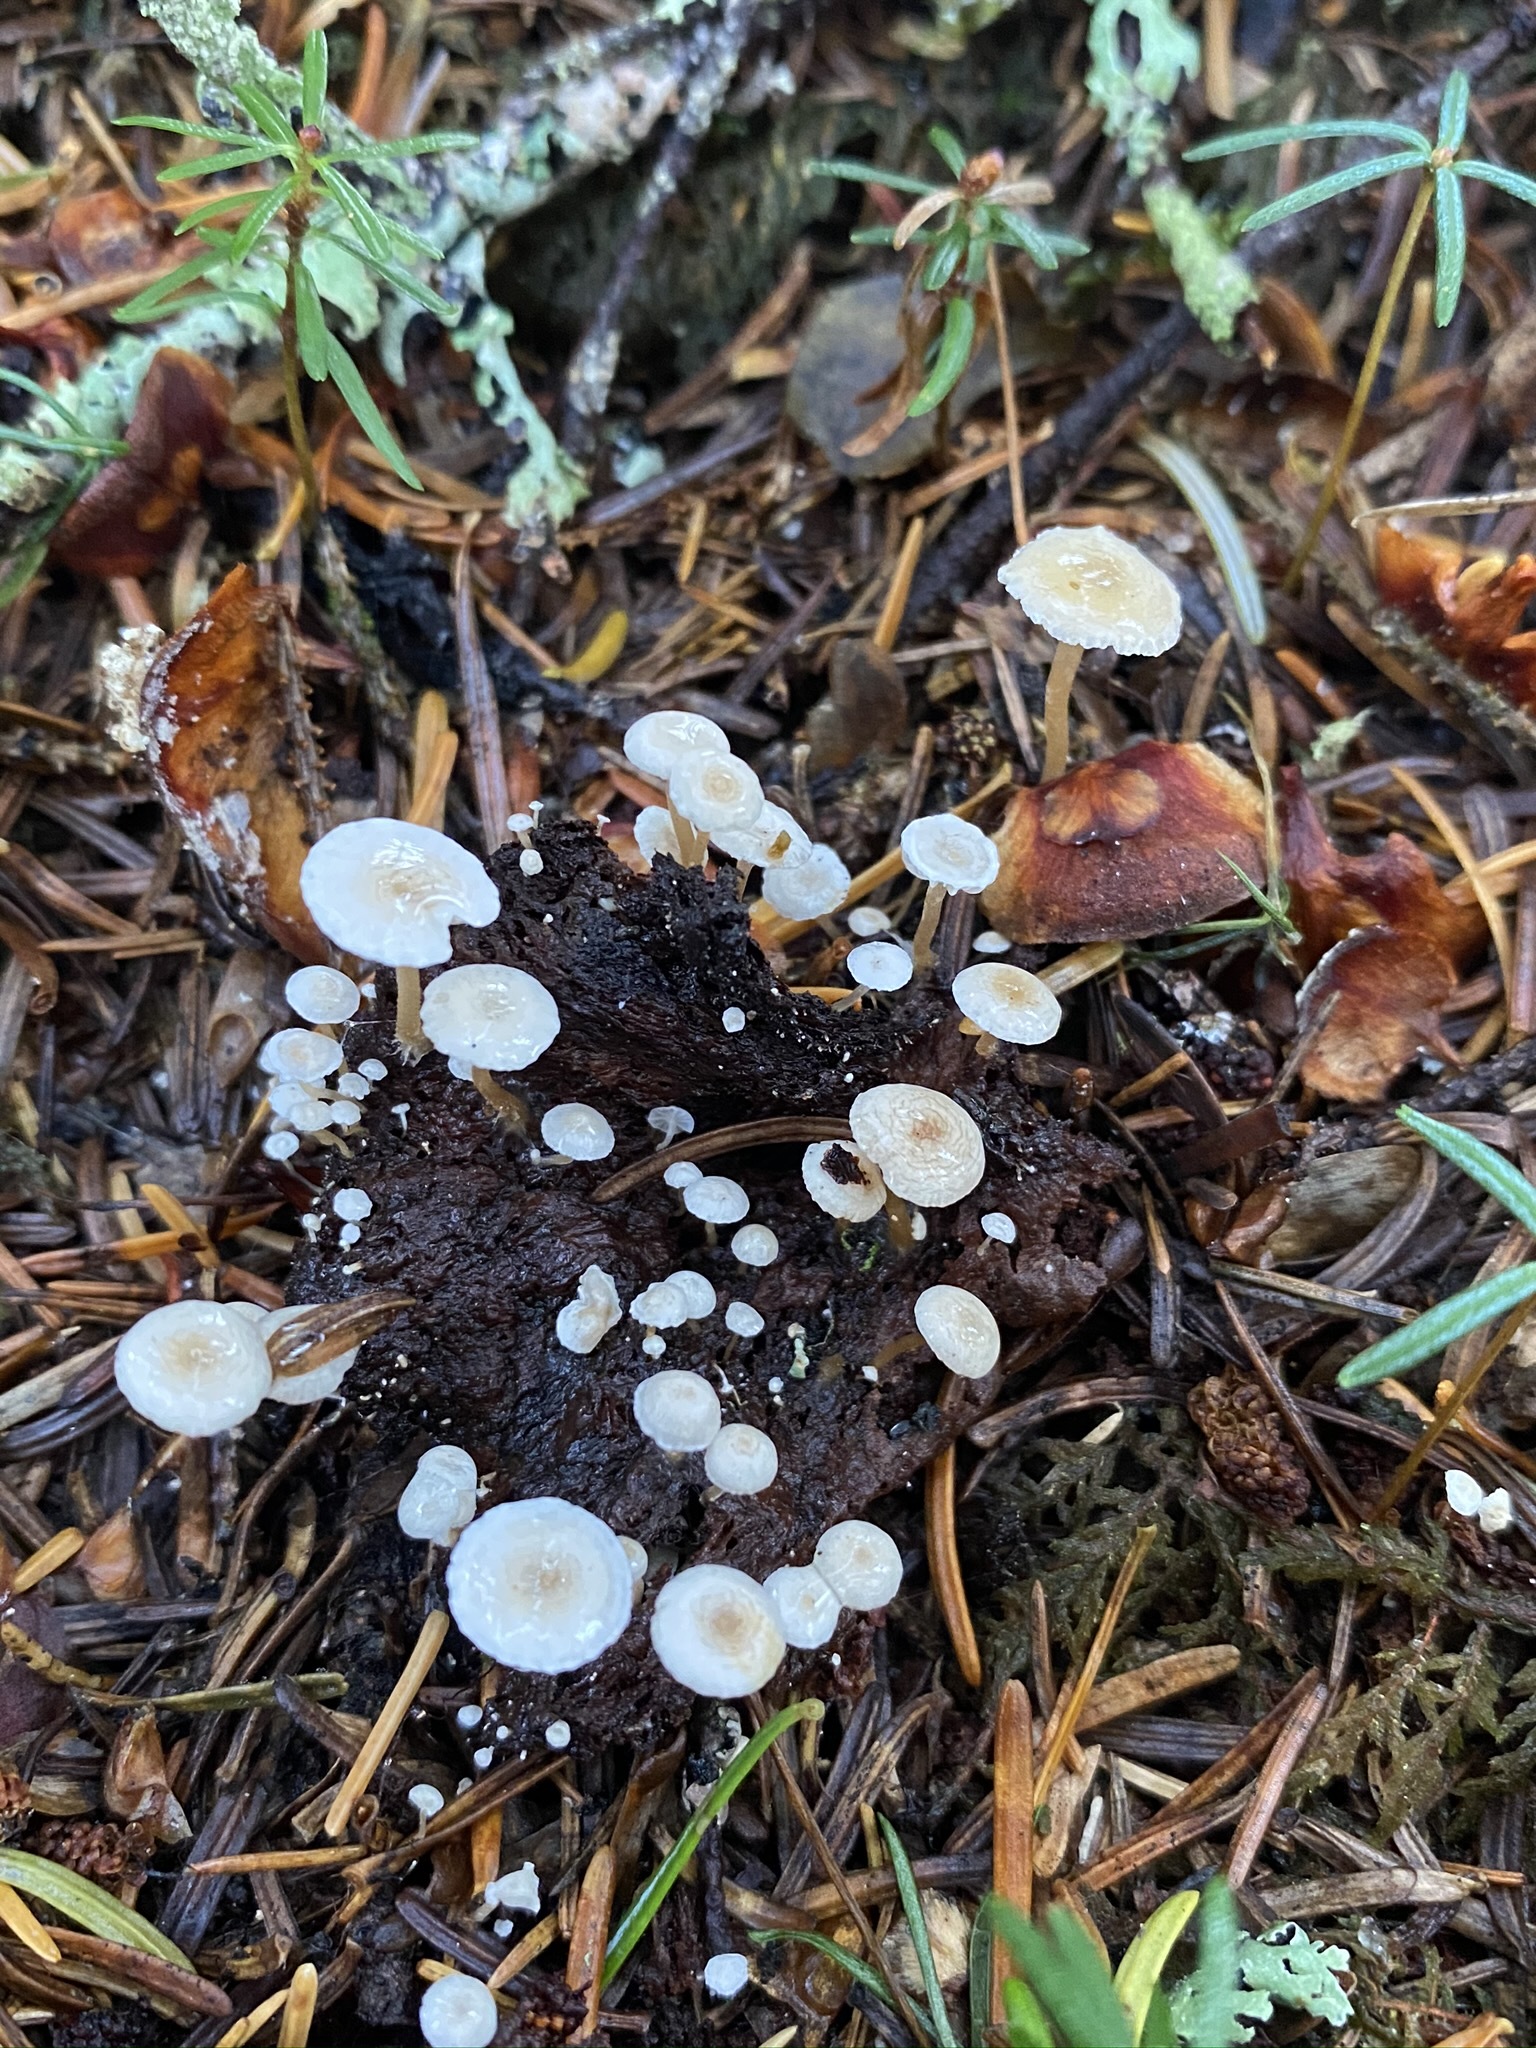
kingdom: Fungi
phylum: Basidiomycota
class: Agaricomycetes
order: Agaricales
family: Tricholomataceae
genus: Collybia
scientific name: Collybia cirrhata
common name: Piggyback shanklet
